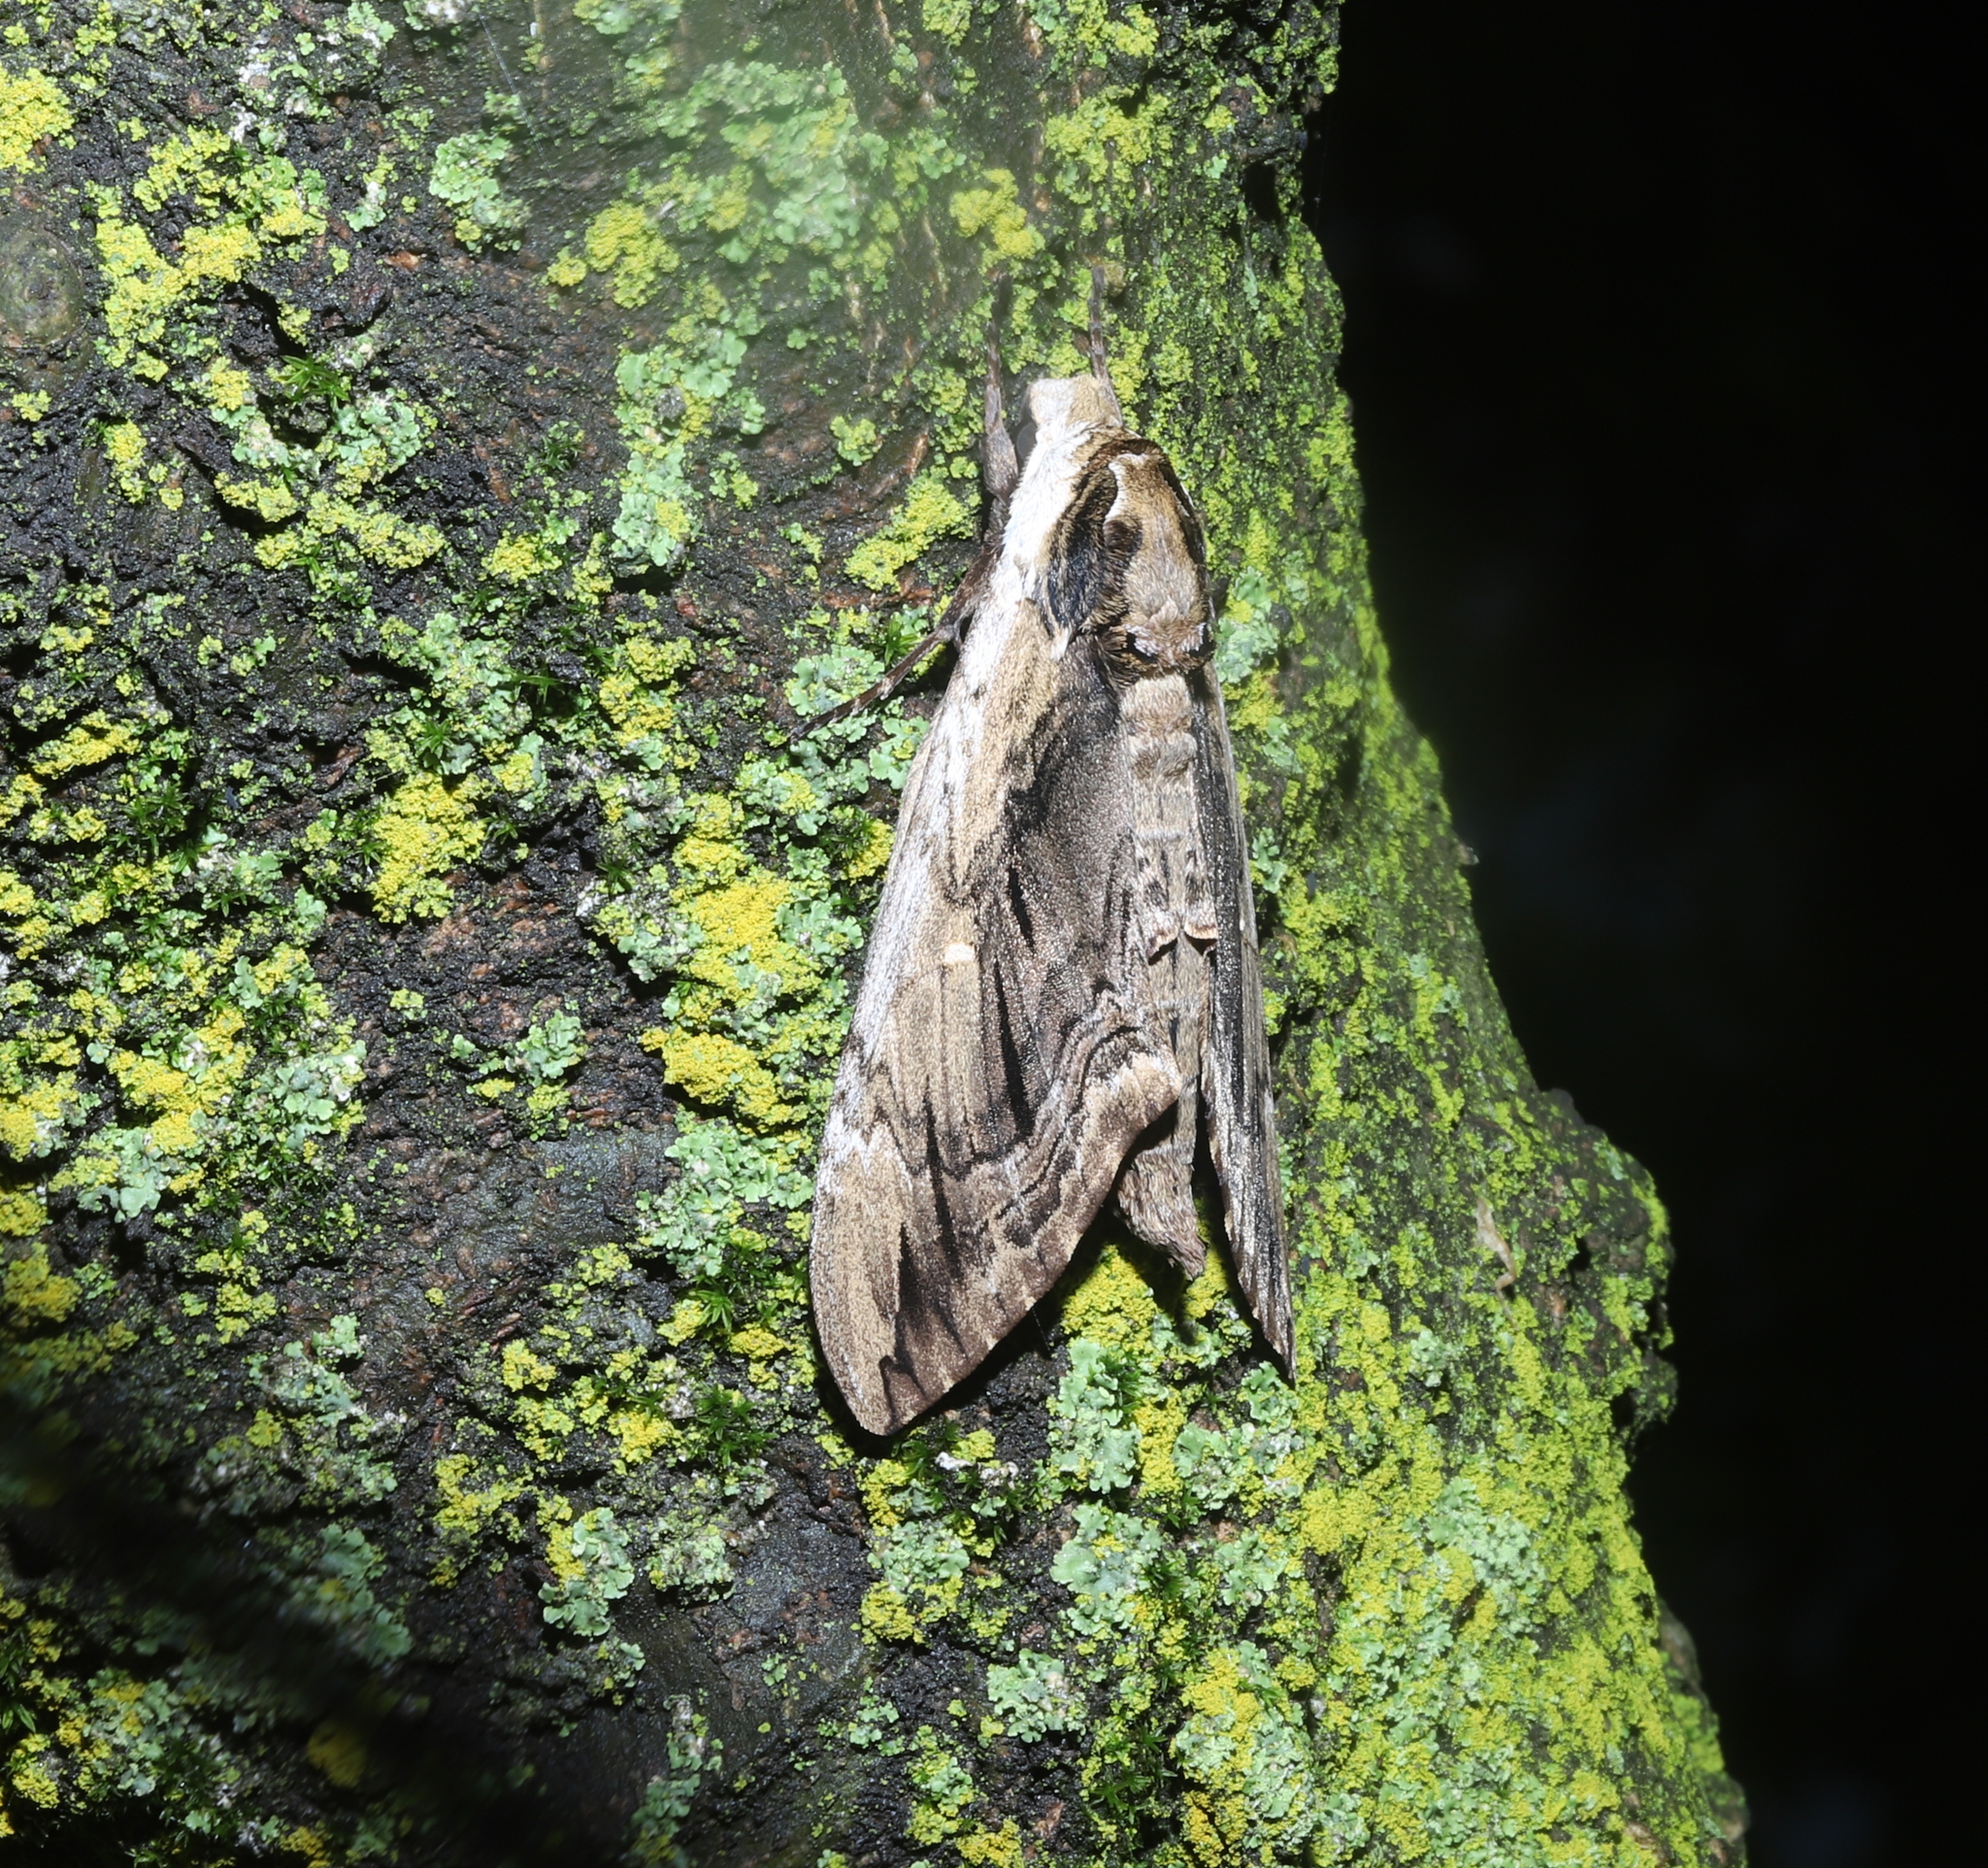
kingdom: Animalia
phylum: Arthropoda
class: Insecta
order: Lepidoptera
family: Sphingidae
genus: Ceratomia
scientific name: Ceratomia amyntor
